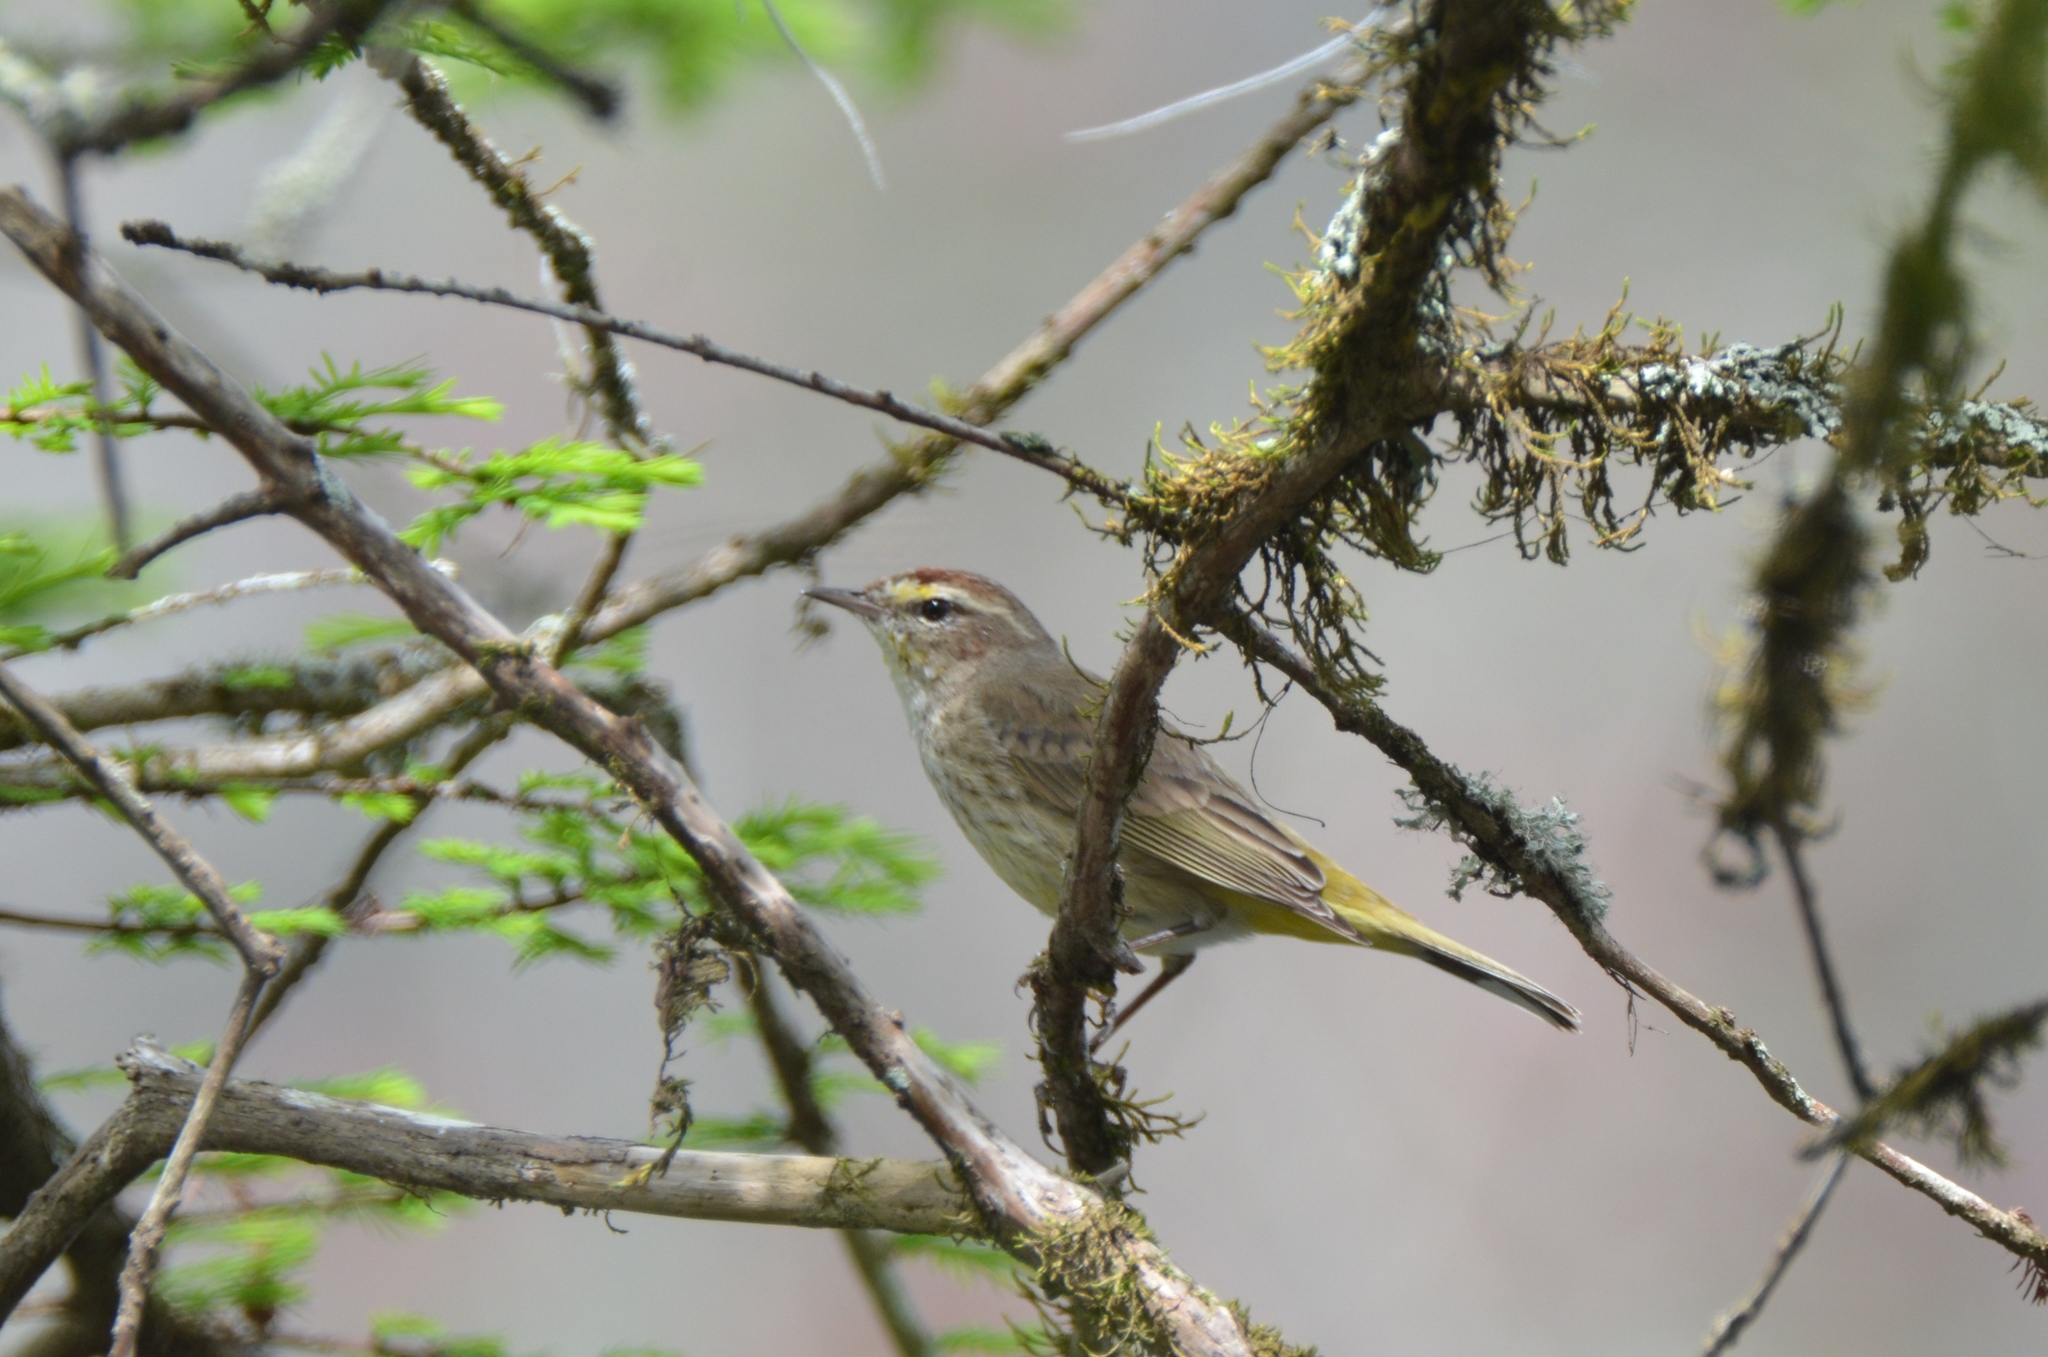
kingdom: Animalia
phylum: Chordata
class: Aves
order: Passeriformes
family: Parulidae
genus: Setophaga
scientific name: Setophaga palmarum
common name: Palm warbler
